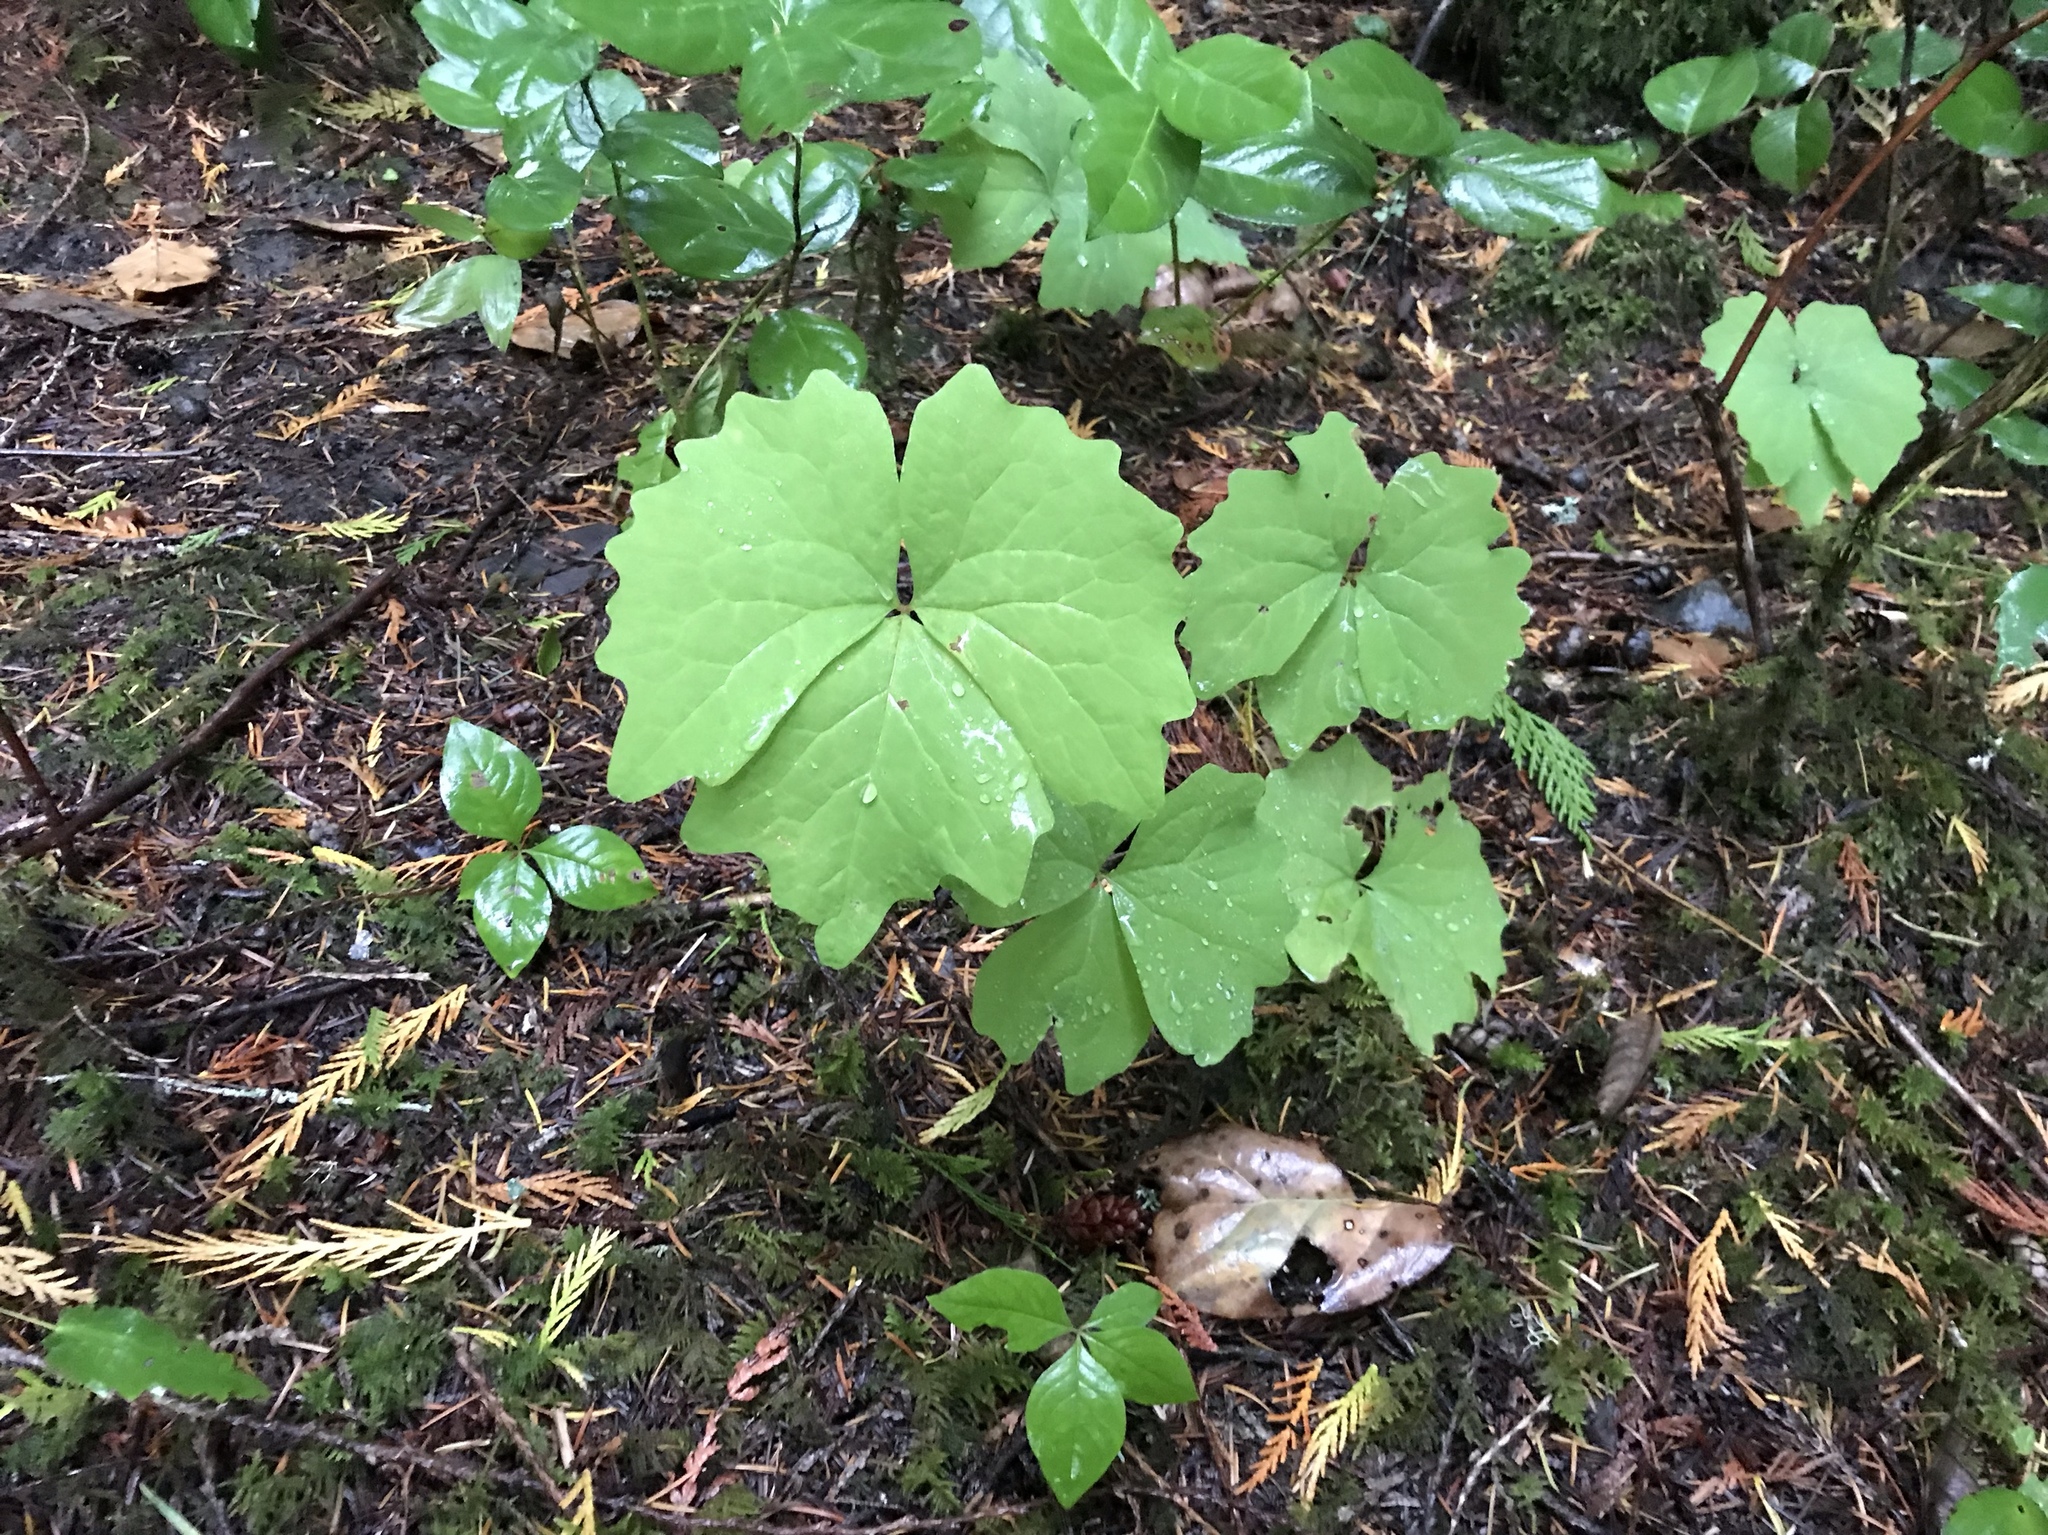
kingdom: Plantae
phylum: Tracheophyta
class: Magnoliopsida
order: Ranunculales
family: Berberidaceae
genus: Achlys
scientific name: Achlys triphylla
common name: Vanilla-leaf
